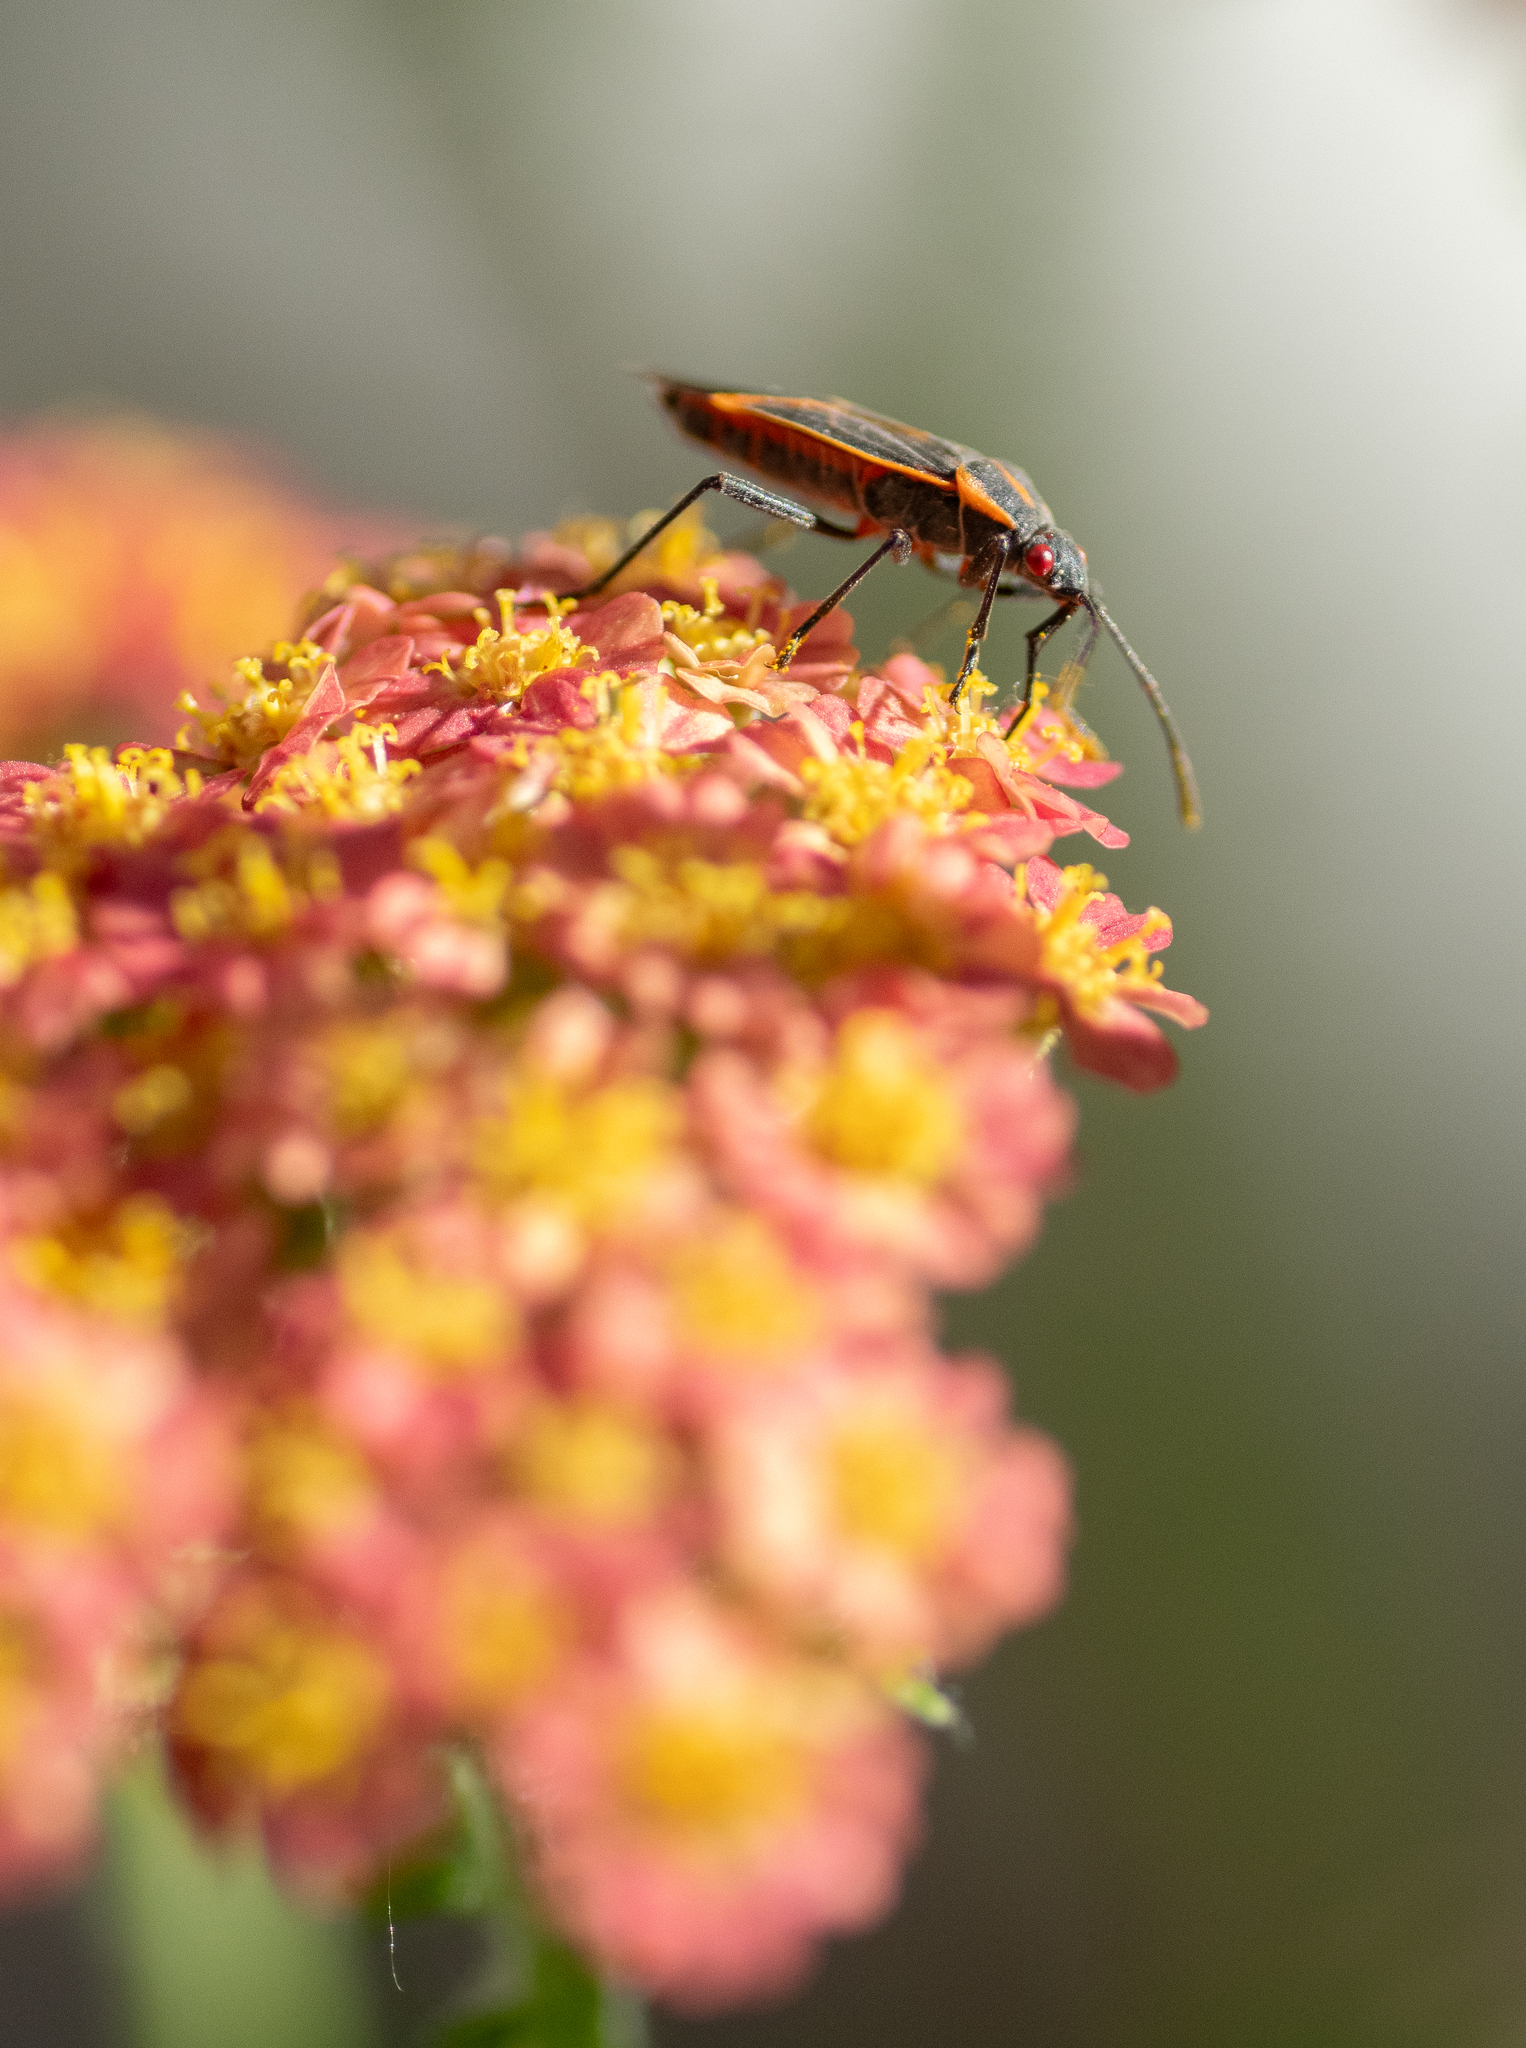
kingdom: Animalia
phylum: Arthropoda
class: Insecta
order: Hemiptera
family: Rhopalidae
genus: Boisea
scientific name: Boisea trivittata
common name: Boxelder bug
